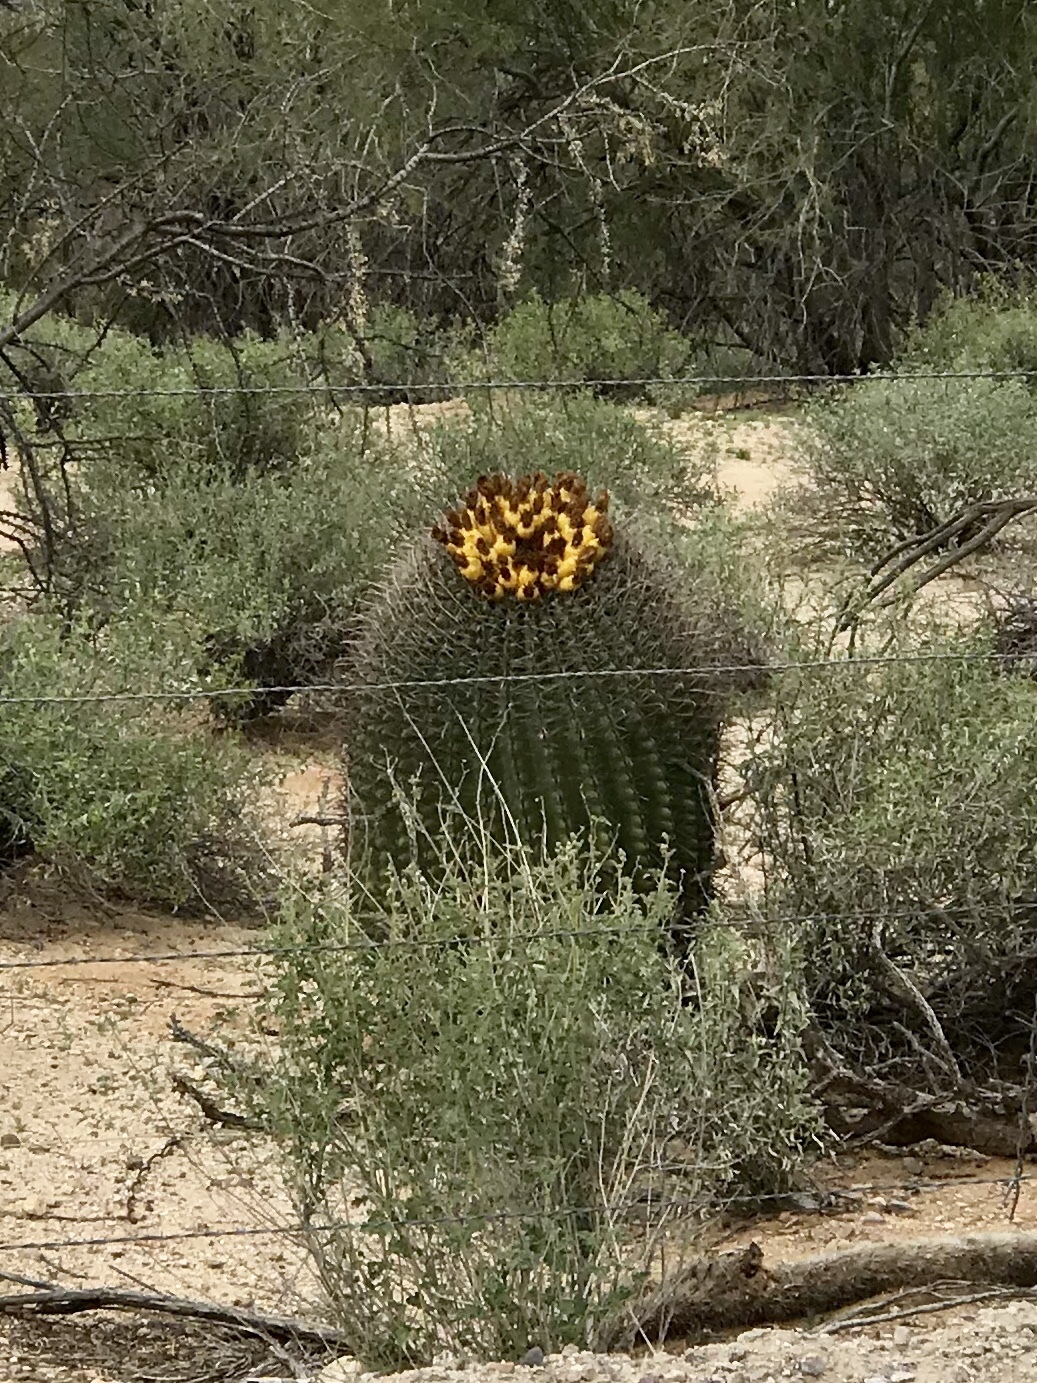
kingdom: Plantae
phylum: Tracheophyta
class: Magnoliopsida
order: Caryophyllales
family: Cactaceae
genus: Ferocactus
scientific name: Ferocactus wislizeni
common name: Candy barrel cactus
